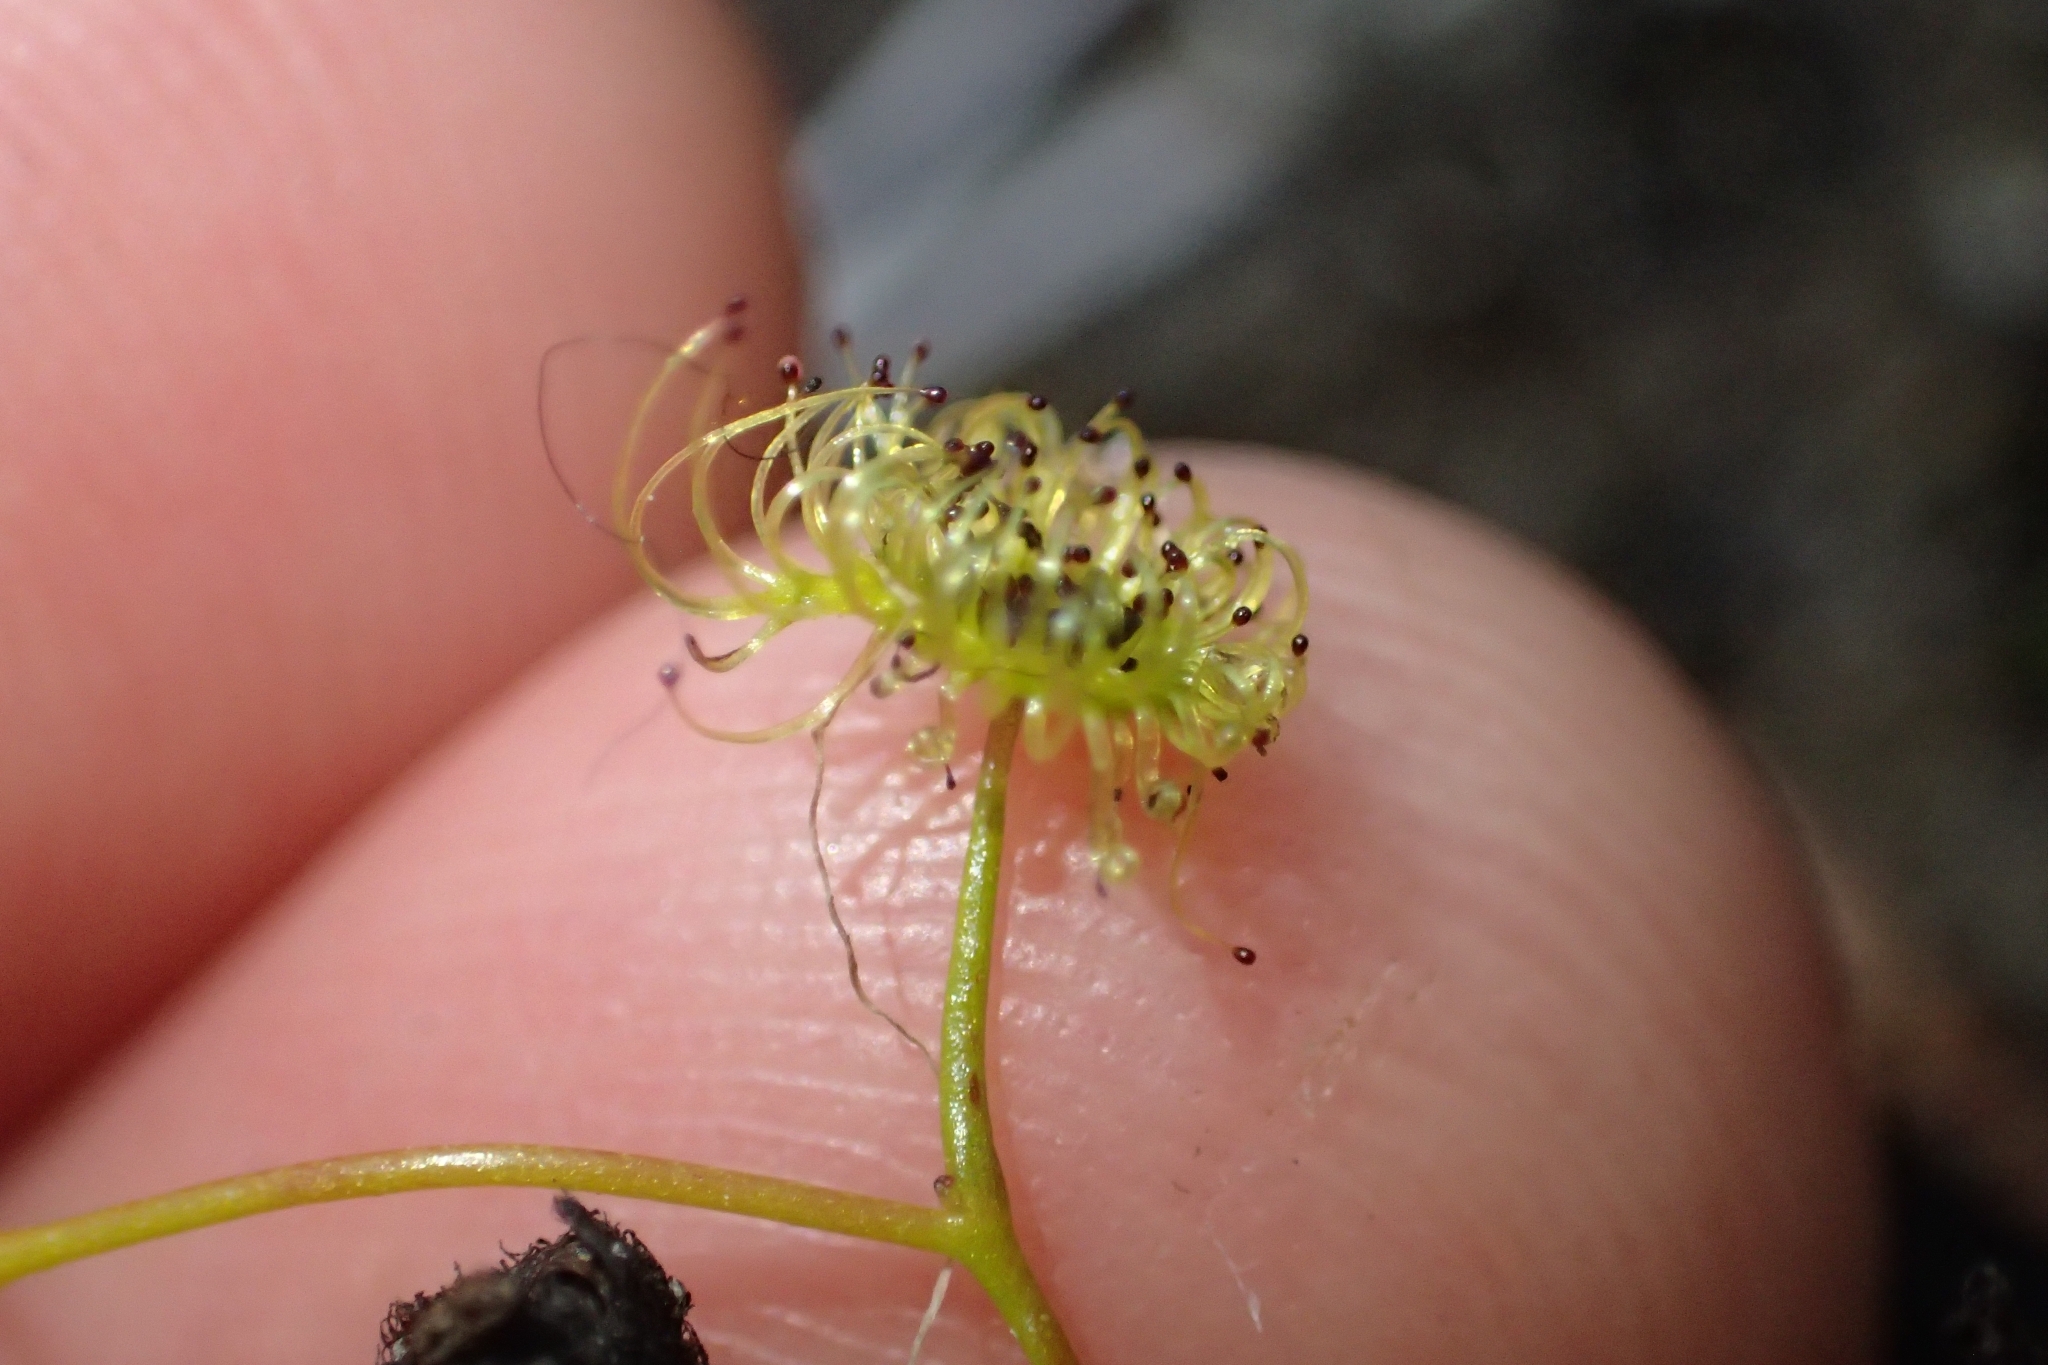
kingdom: Plantae
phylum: Tracheophyta
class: Magnoliopsida
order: Caryophyllales
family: Droseraceae
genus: Drosera
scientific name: Drosera gunniana
